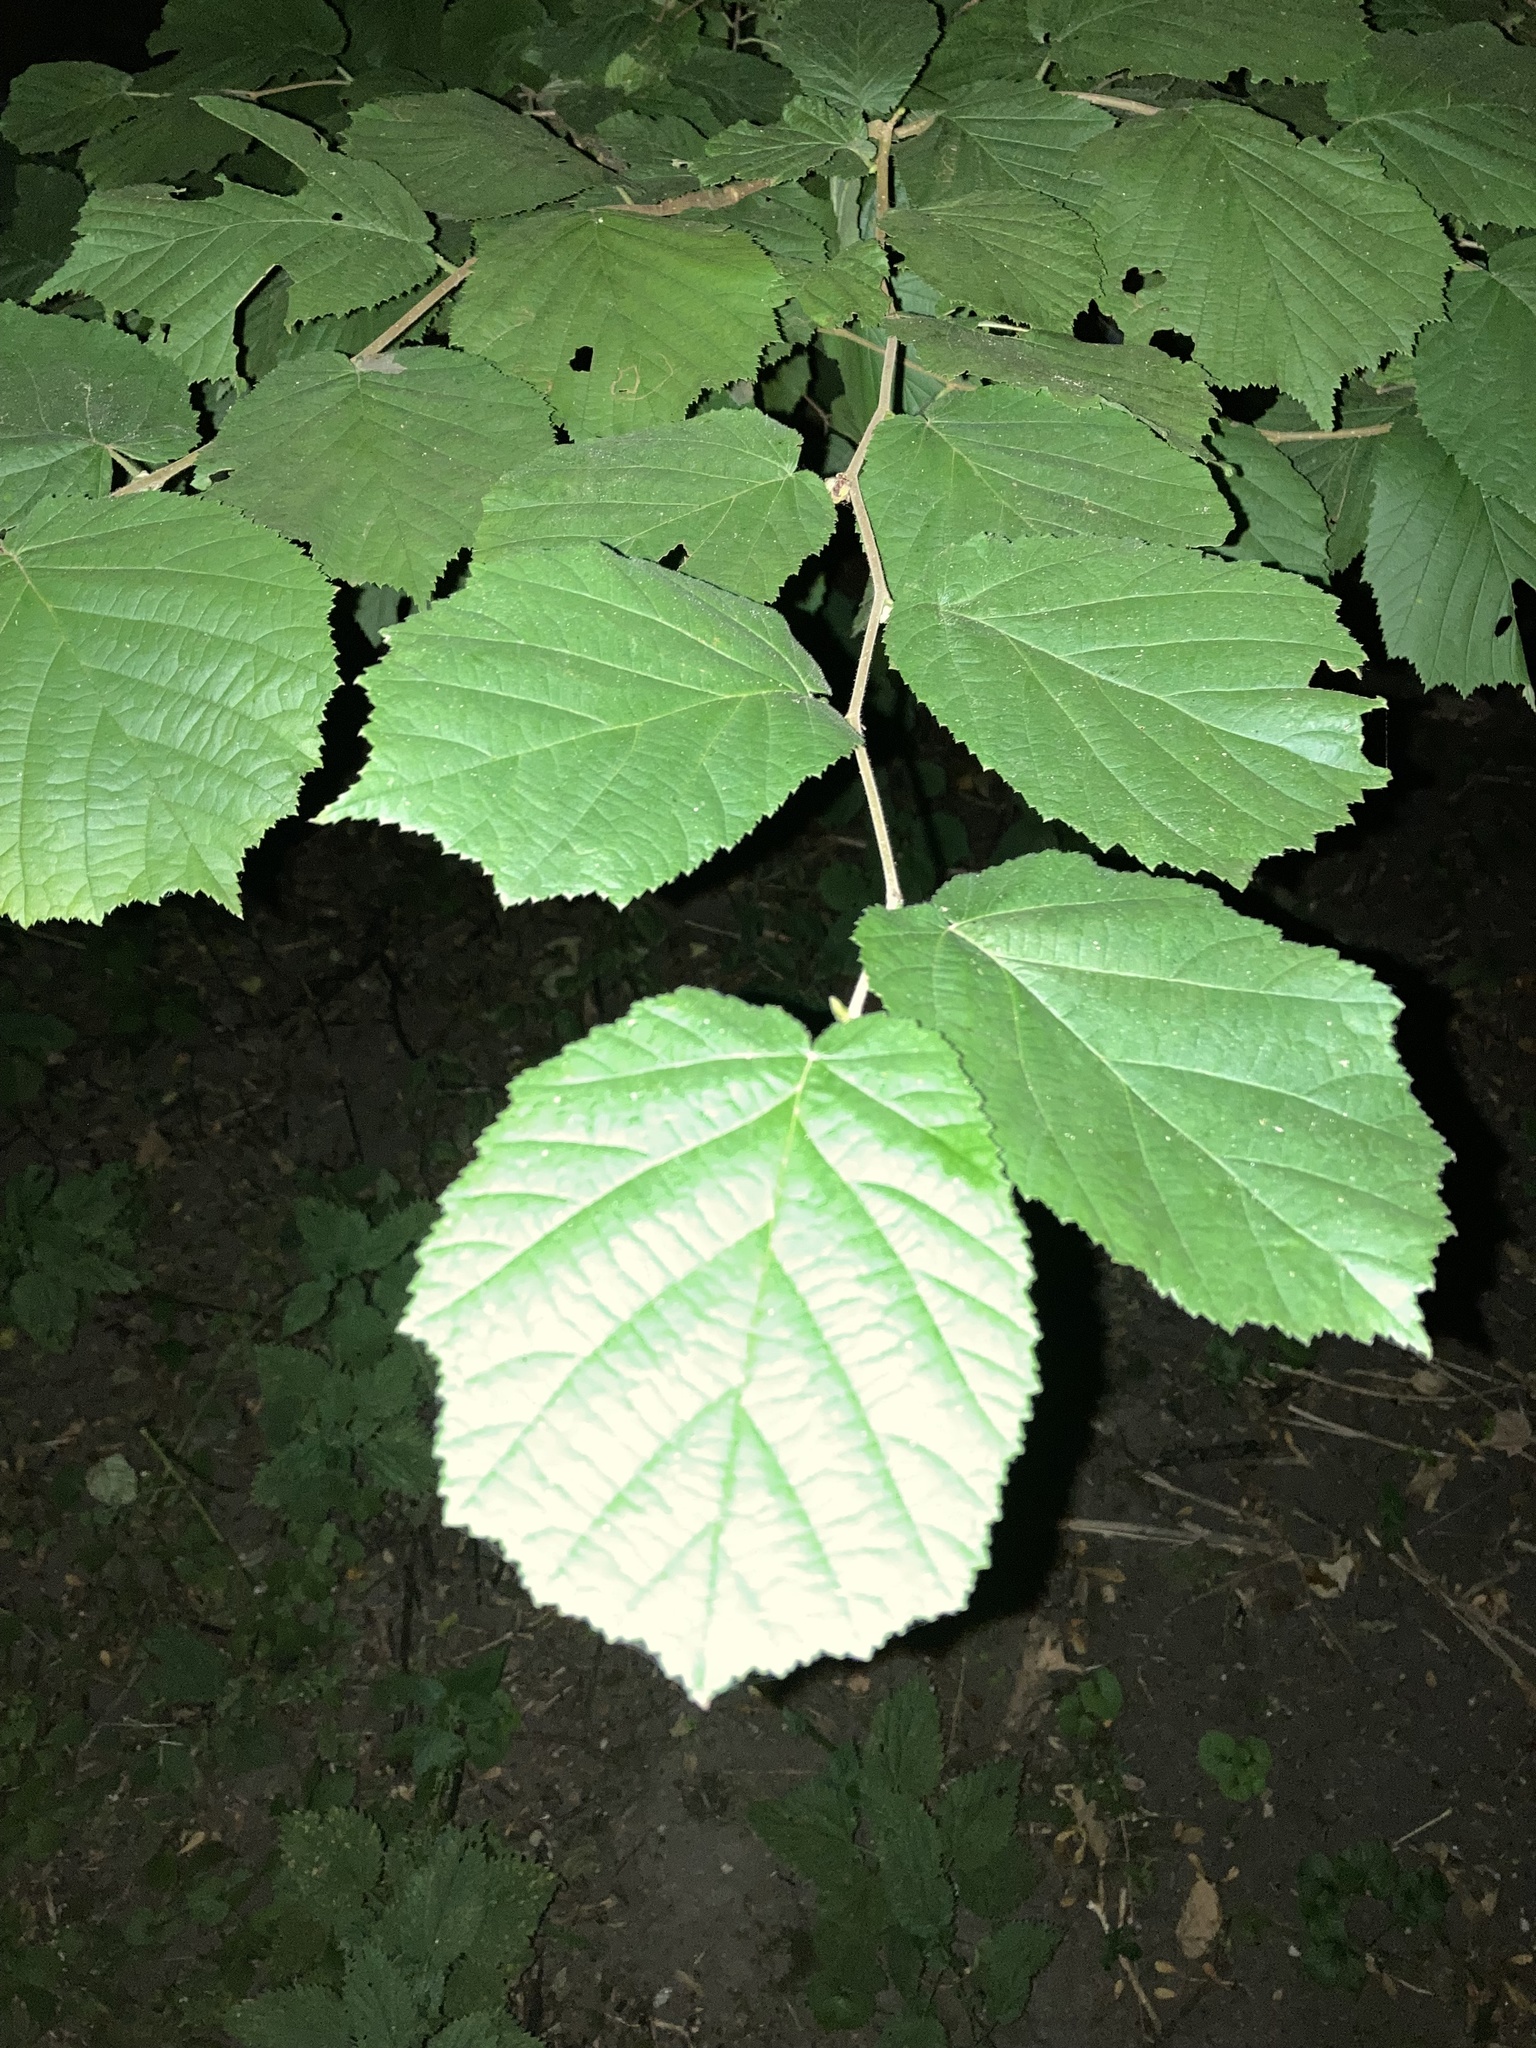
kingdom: Plantae
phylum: Tracheophyta
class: Magnoliopsida
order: Fagales
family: Betulaceae
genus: Corylus
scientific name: Corylus avellana
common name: European hazel
